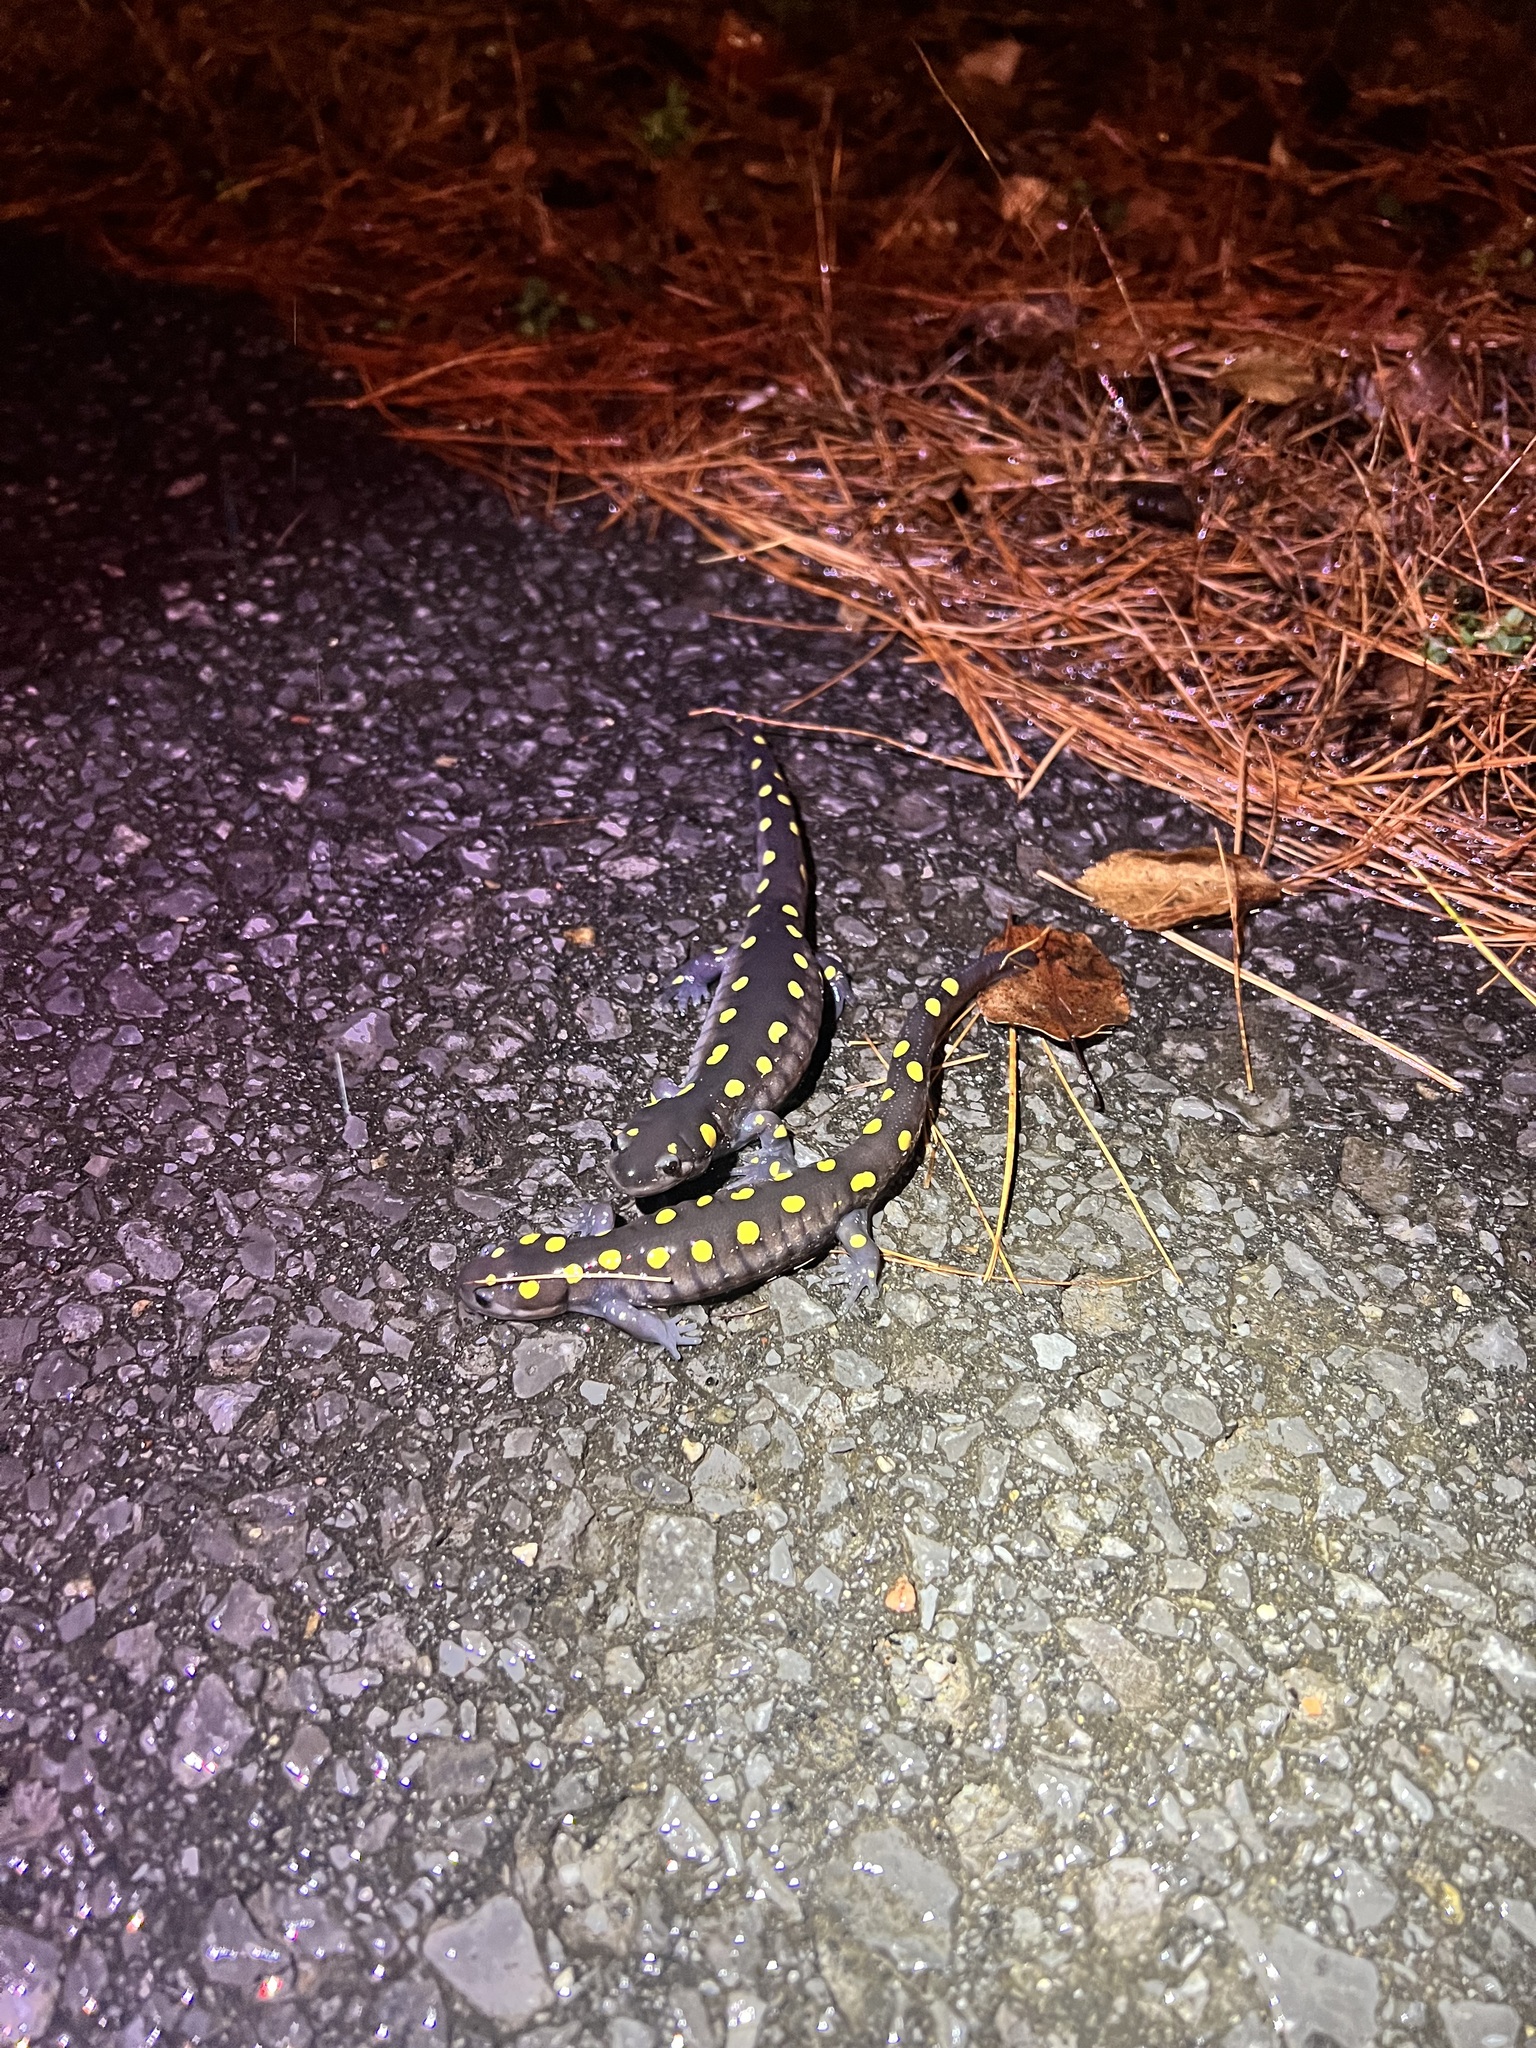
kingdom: Animalia
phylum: Chordata
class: Amphibia
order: Caudata
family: Ambystomatidae
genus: Ambystoma
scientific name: Ambystoma maculatum
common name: Spotted salamander
